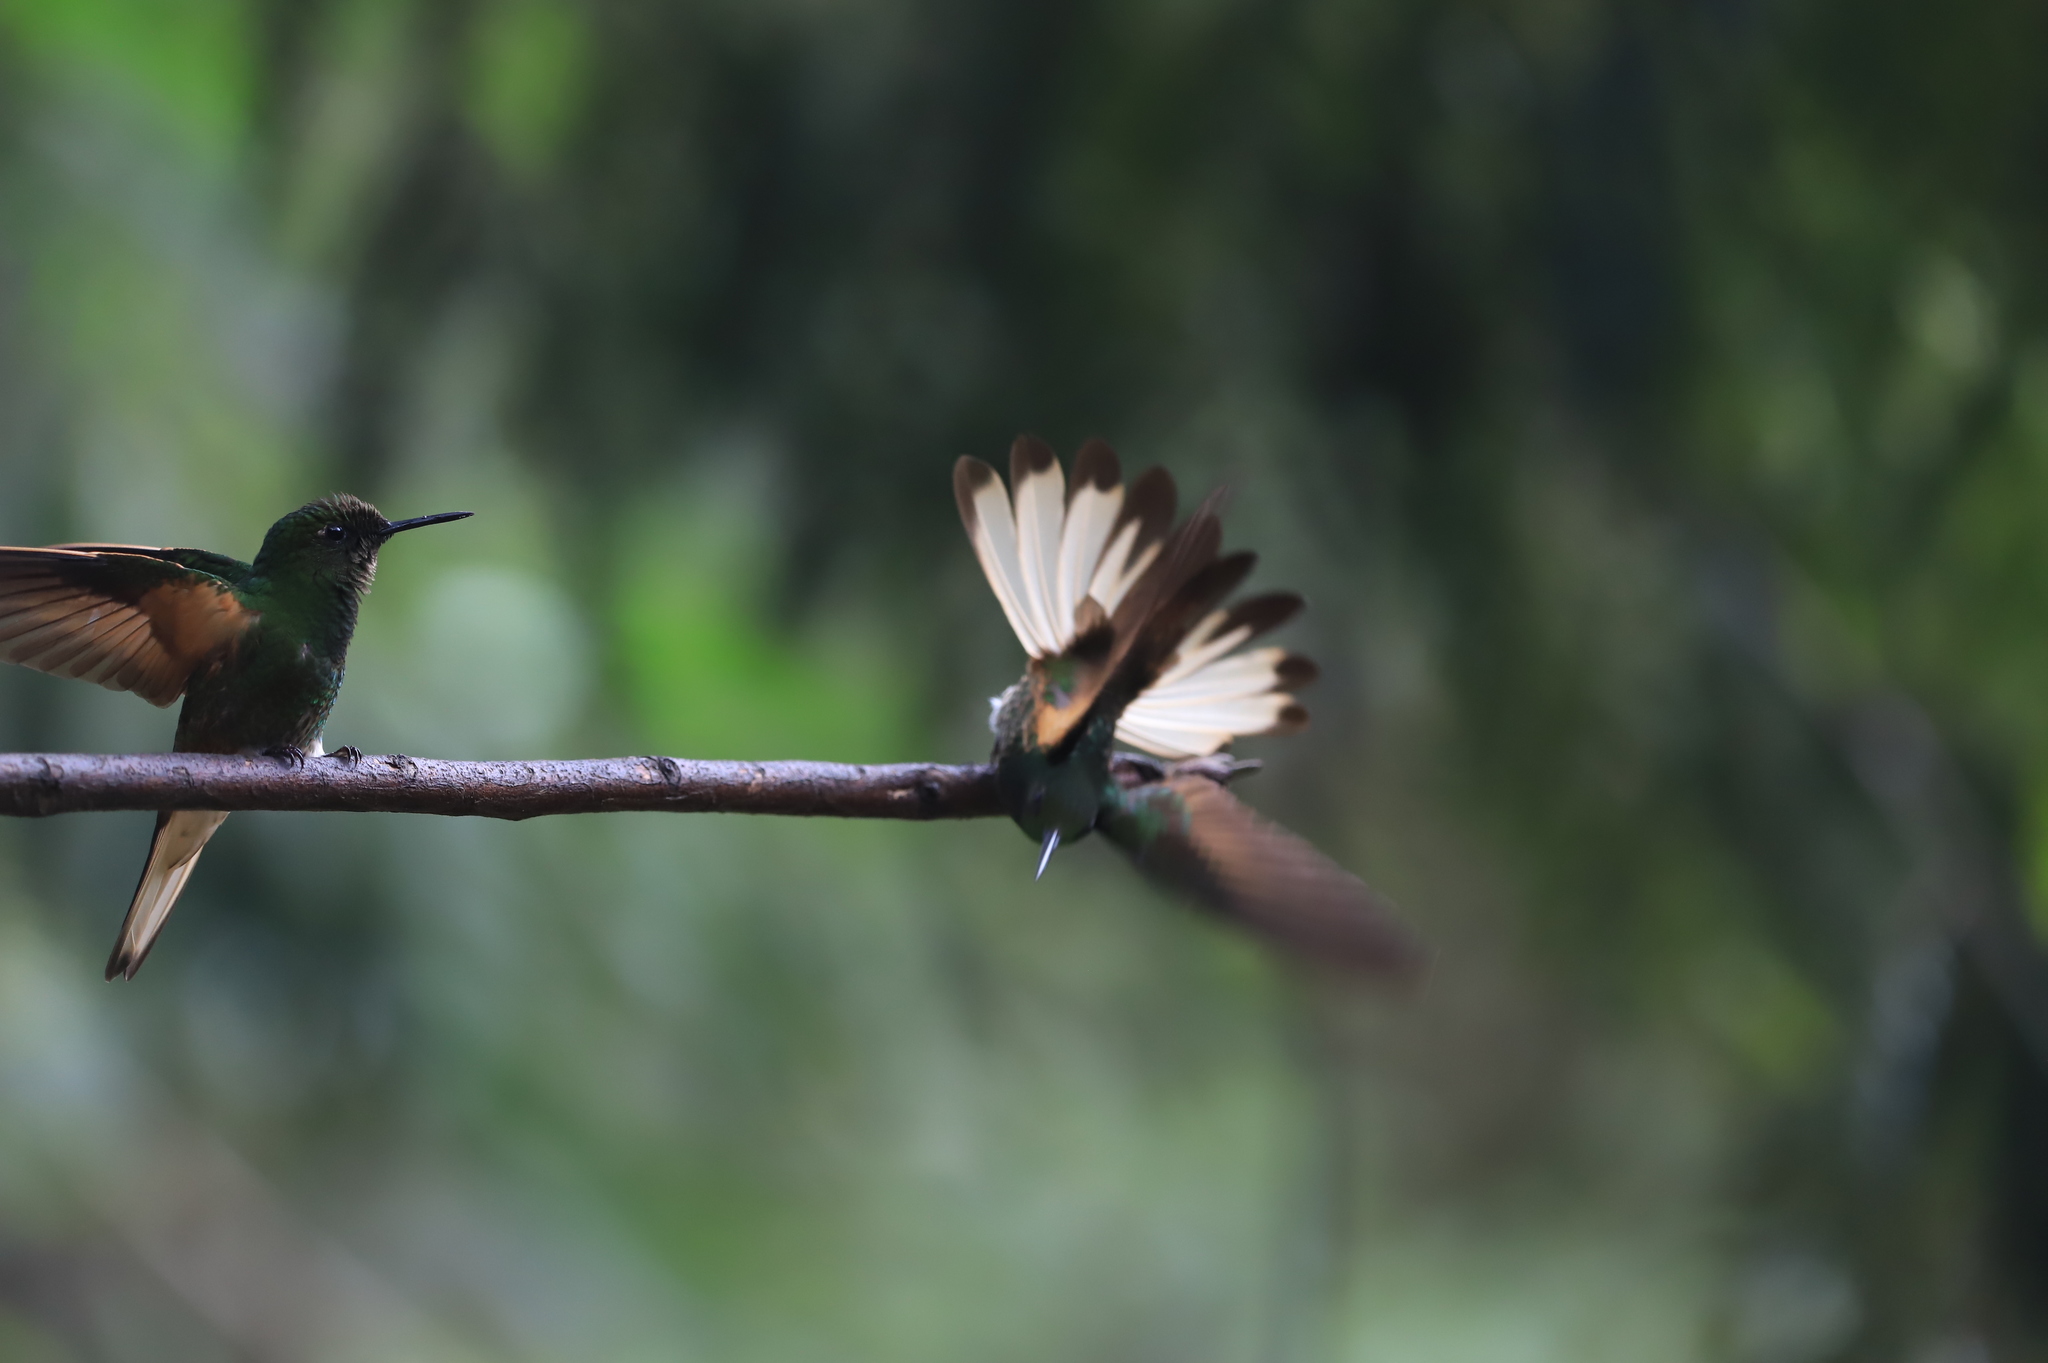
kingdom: Animalia
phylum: Chordata
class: Aves
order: Apodiformes
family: Trochilidae
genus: Boissonneaua
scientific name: Boissonneaua flavescens
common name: Buff-tailed coronet
